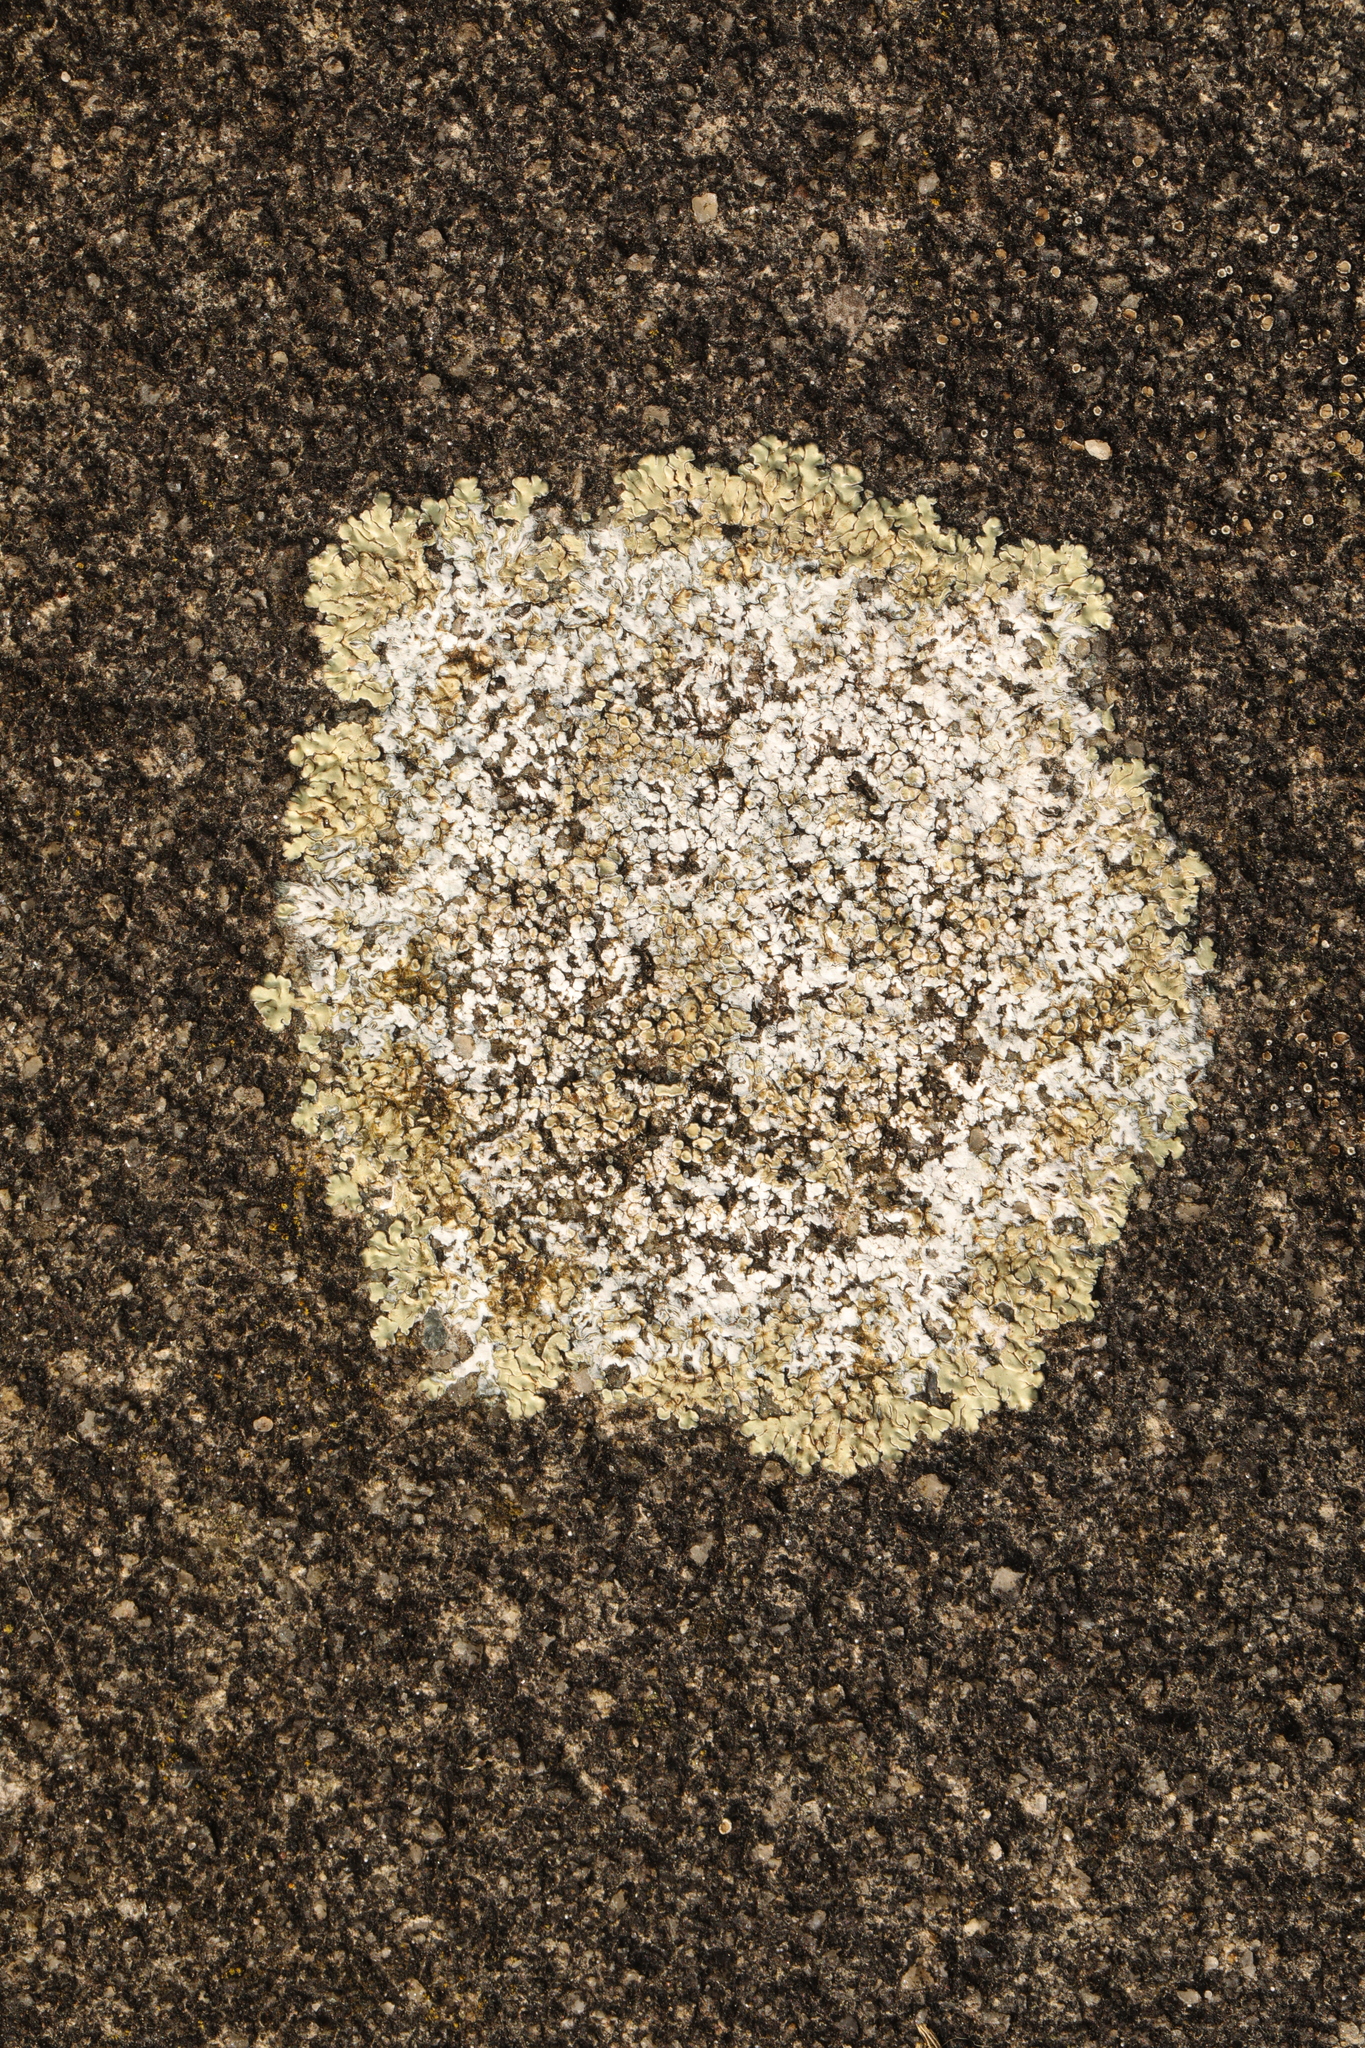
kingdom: Fungi
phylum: Ascomycota
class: Lecanoromycetes
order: Lecanorales
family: Lecanoraceae
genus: Protoparmeliopsis
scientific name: Protoparmeliopsis muralis
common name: Stonewall rim lichen
